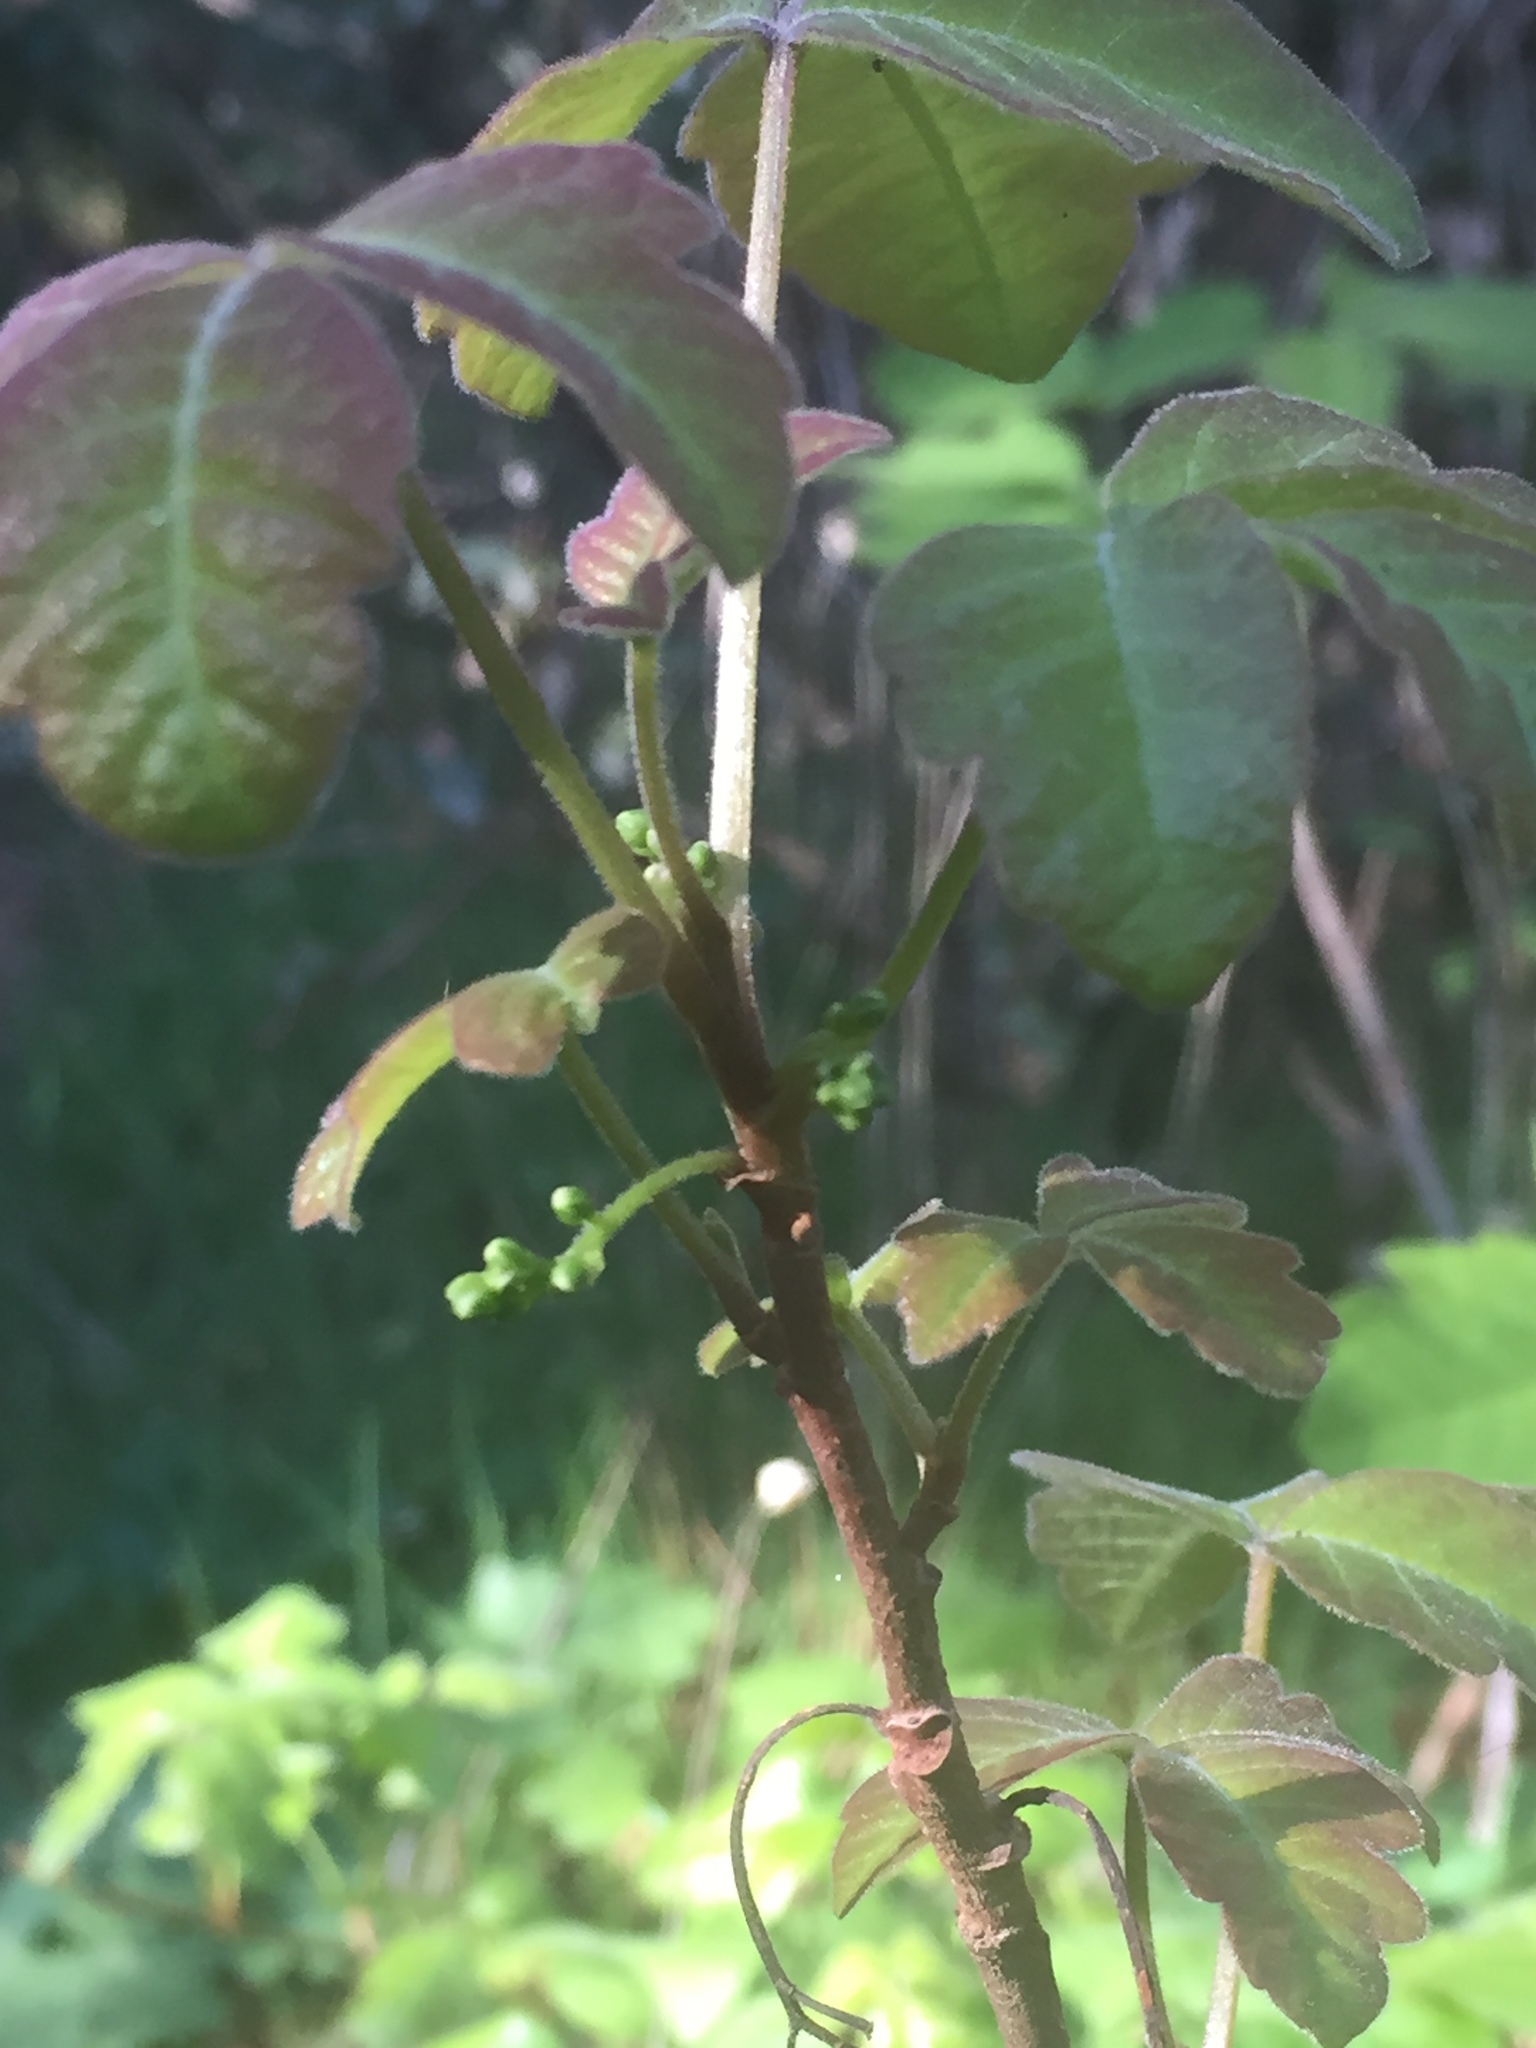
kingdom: Plantae
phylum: Tracheophyta
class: Magnoliopsida
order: Sapindales
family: Anacardiaceae
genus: Toxicodendron
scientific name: Toxicodendron diversilobum
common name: Pacific poison-oak
